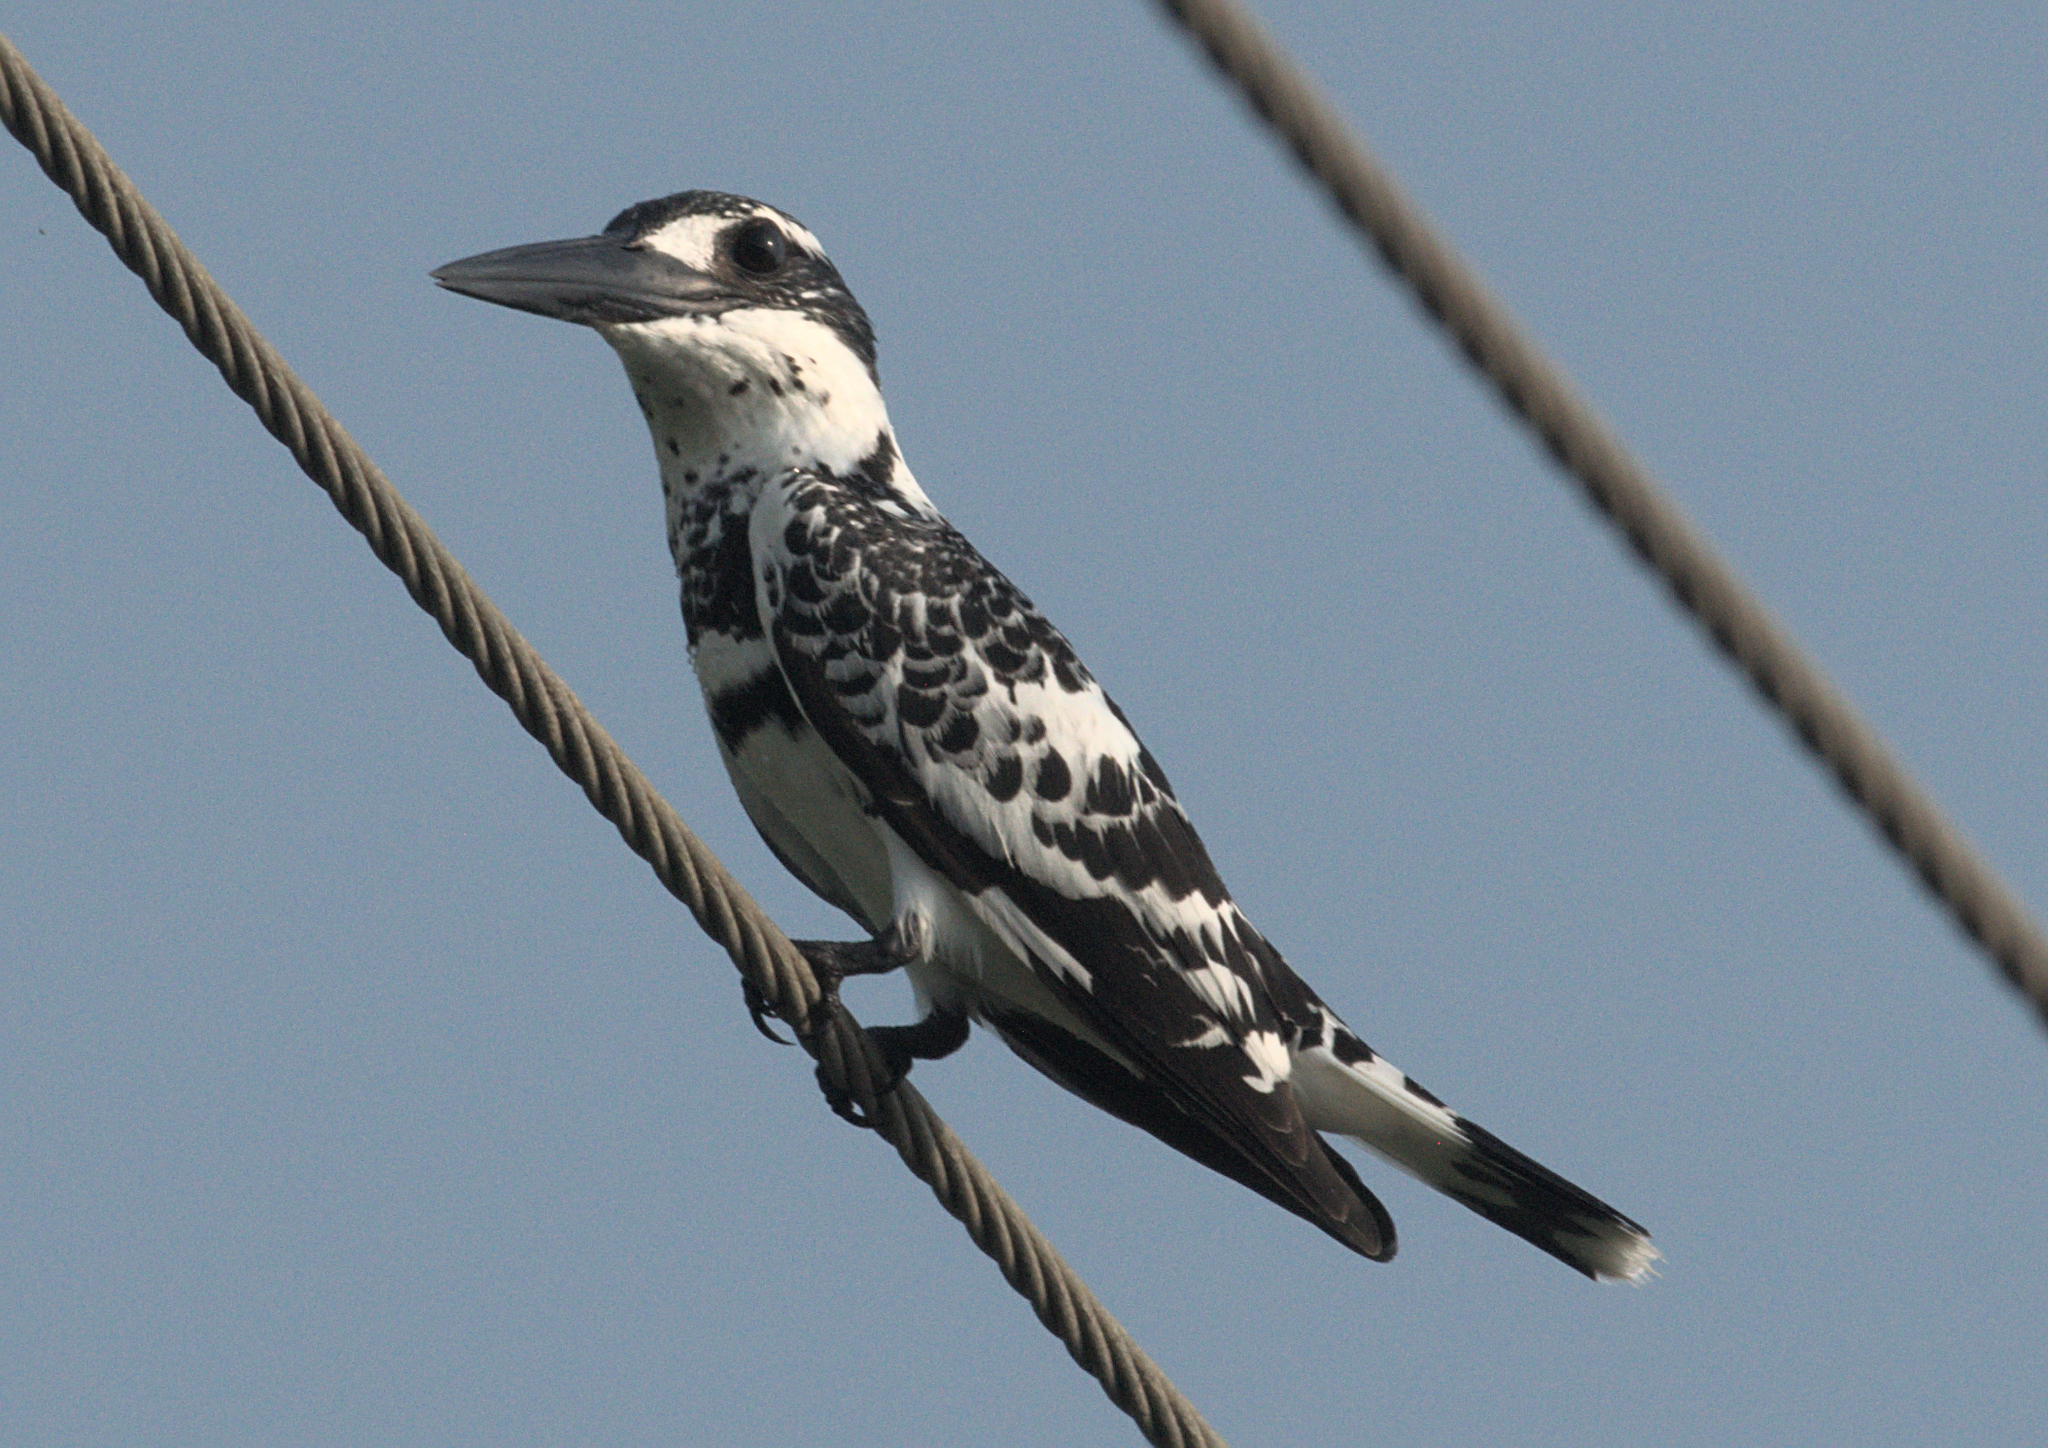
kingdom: Animalia
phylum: Chordata
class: Aves
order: Coraciiformes
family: Alcedinidae
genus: Ceryle
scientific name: Ceryle rudis
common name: Pied kingfisher
